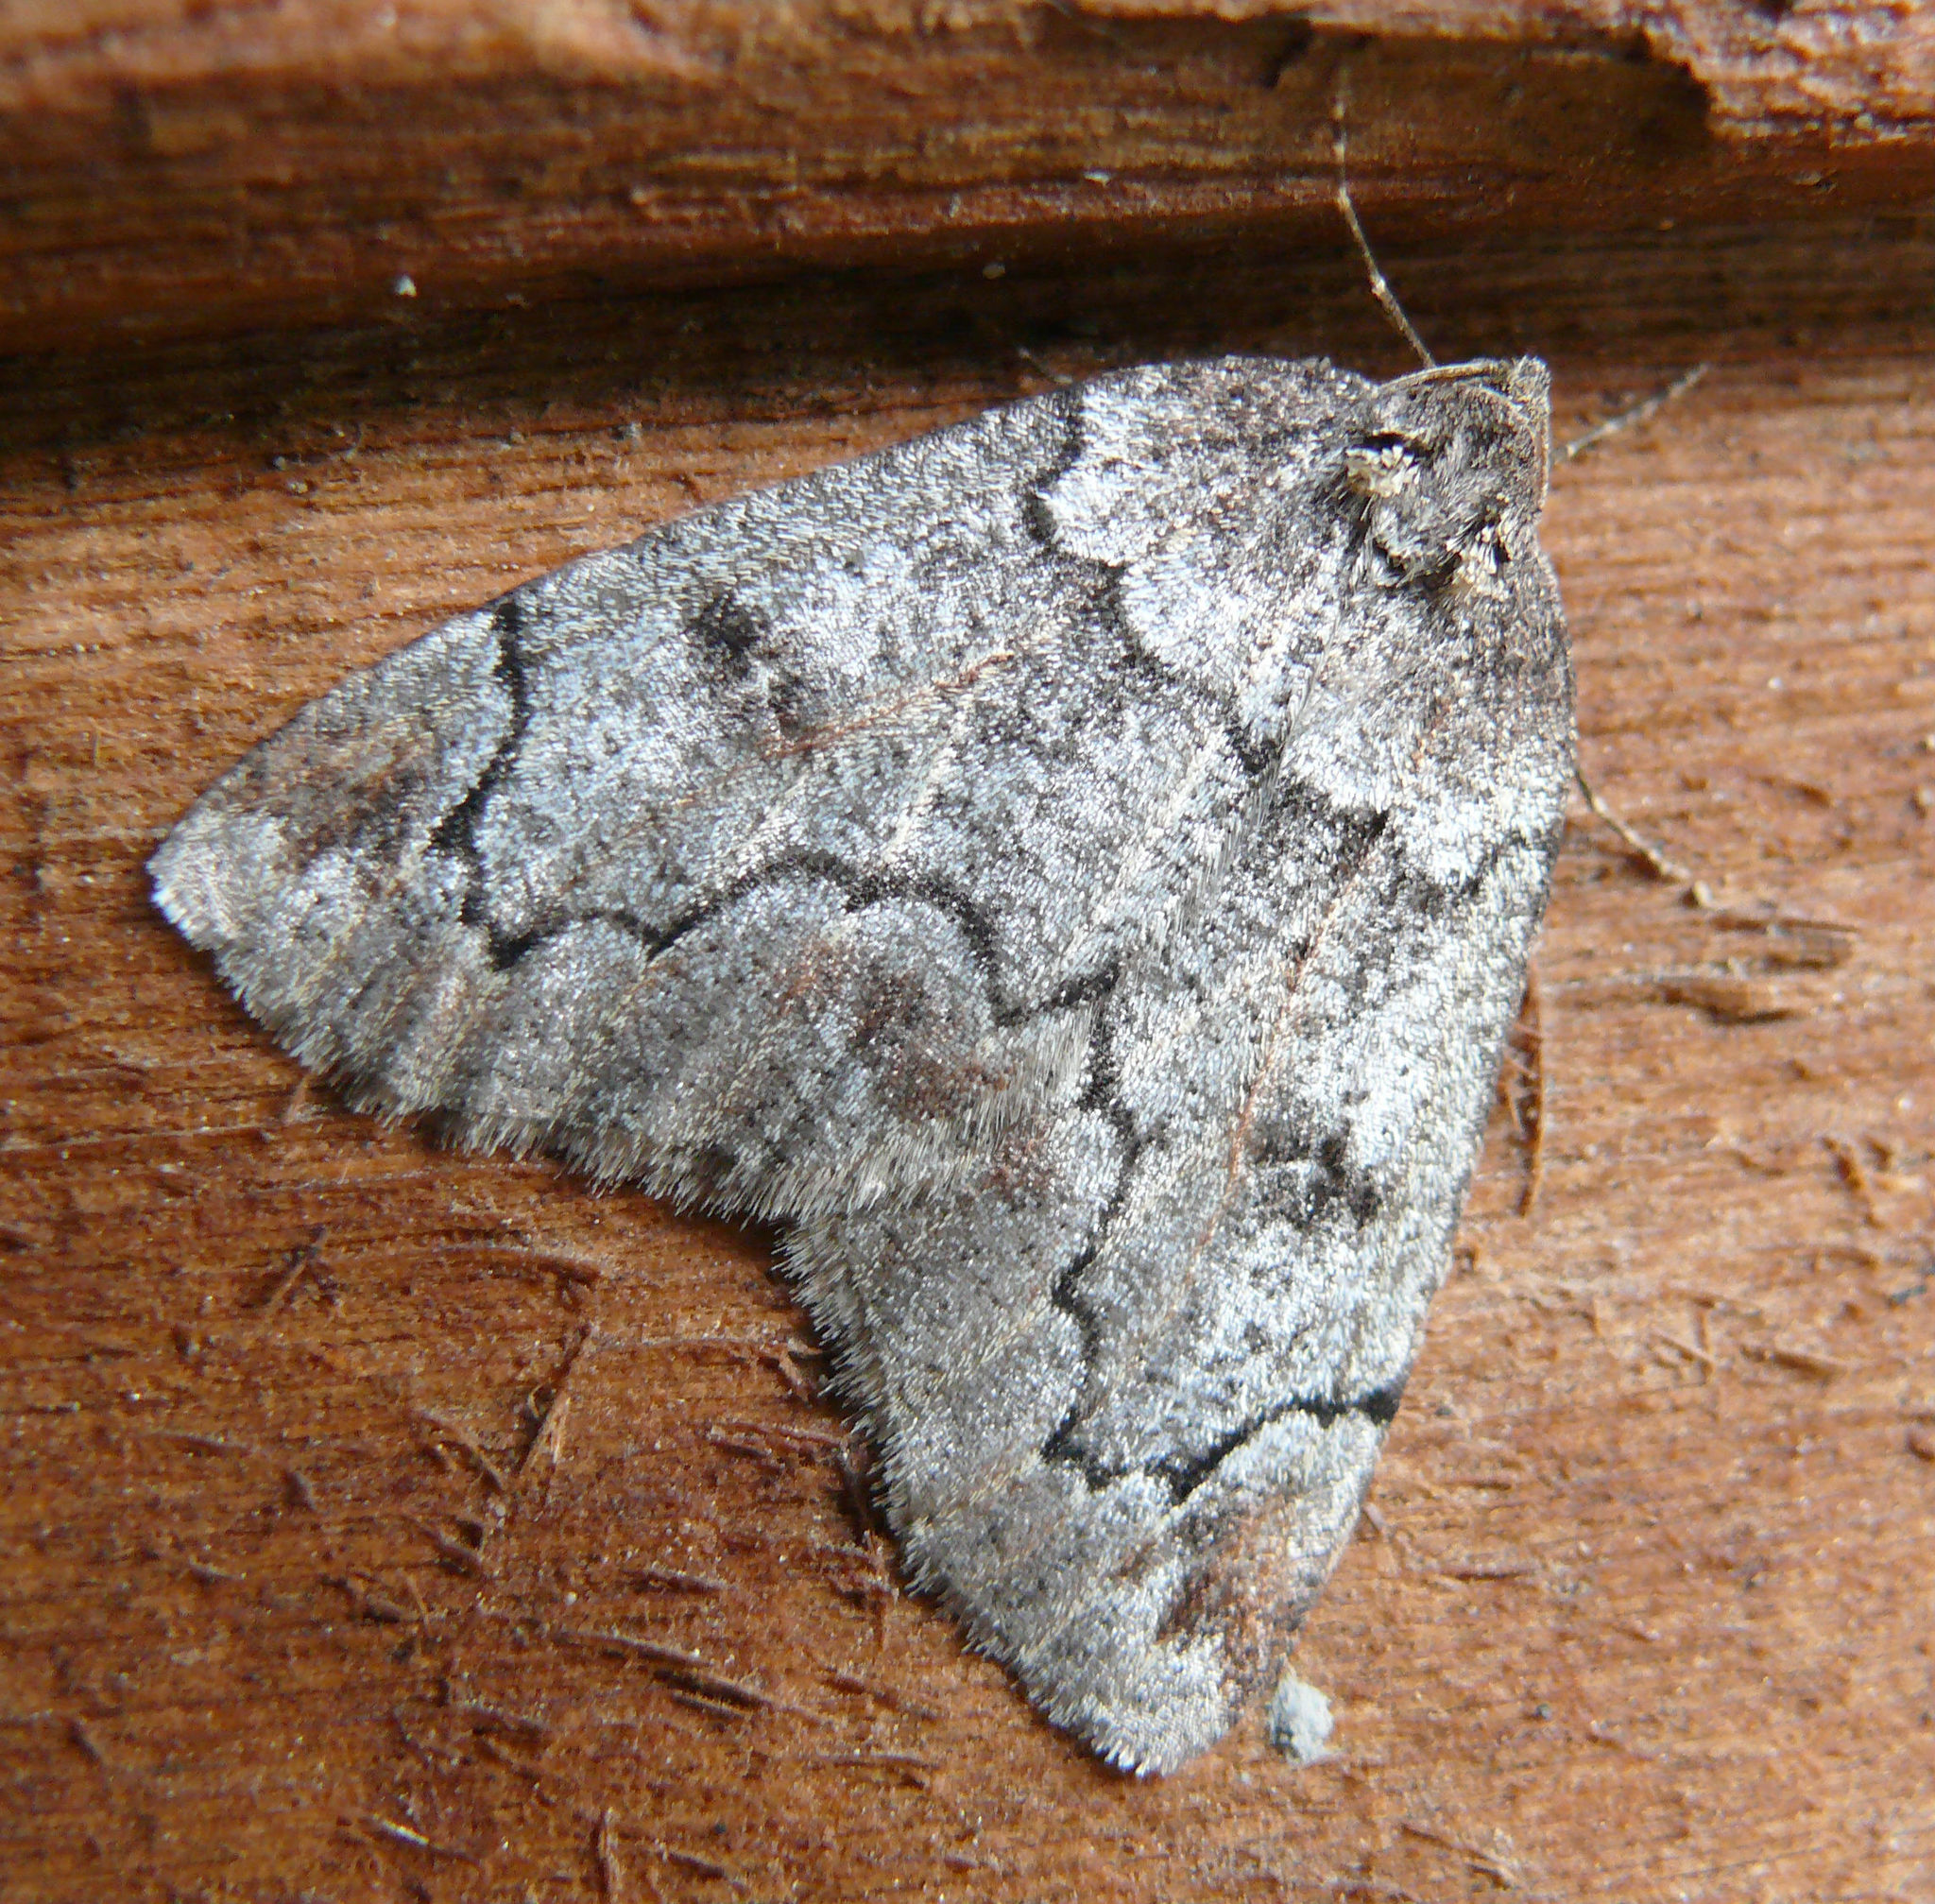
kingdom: Animalia
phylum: Arthropoda
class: Insecta
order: Lepidoptera
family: Geometridae
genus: Spodolepis
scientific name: Spodolepis danbyi
